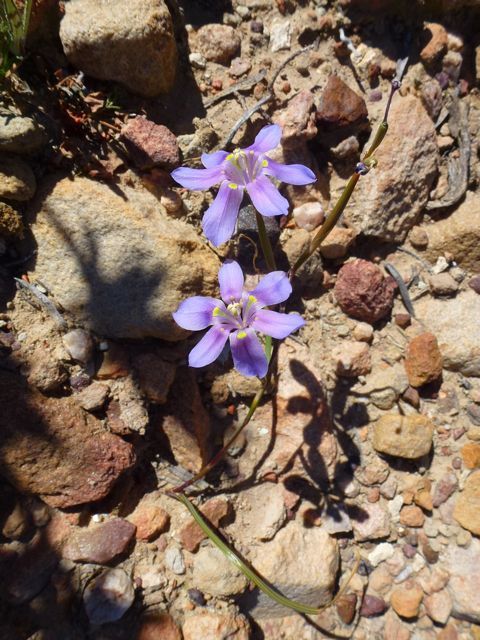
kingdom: Plantae
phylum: Tracheophyta
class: Liliopsida
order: Asparagales
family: Iridaceae
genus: Moraea
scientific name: Moraea polyanthos
